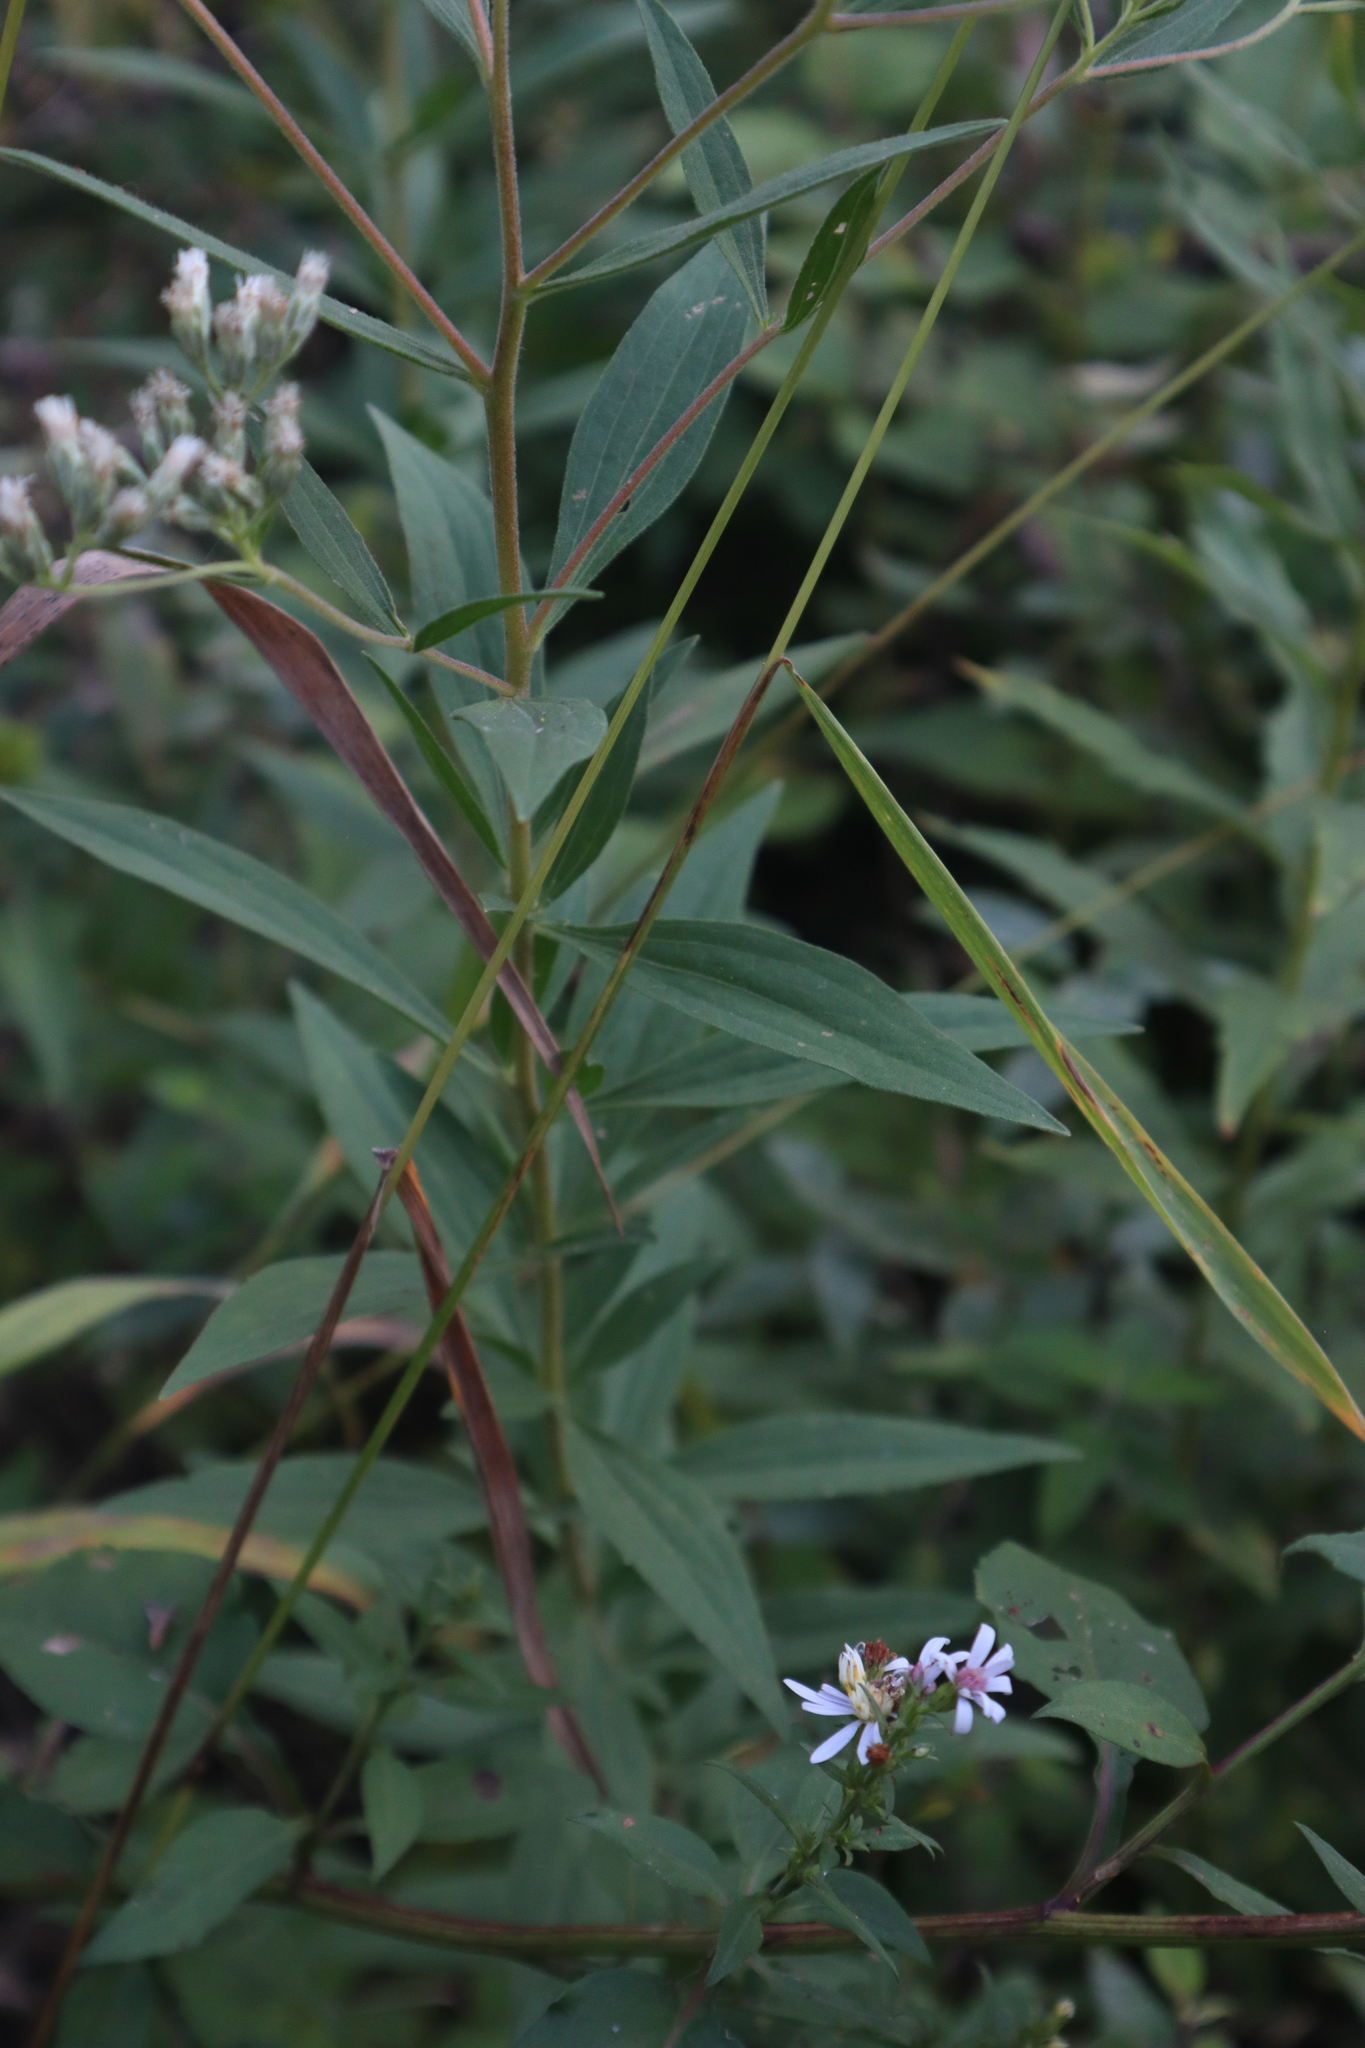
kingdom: Plantae
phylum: Tracheophyta
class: Magnoliopsida
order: Asterales
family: Asteraceae
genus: Eupatorium
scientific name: Eupatorium altissimum
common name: Tall thoroughwort
